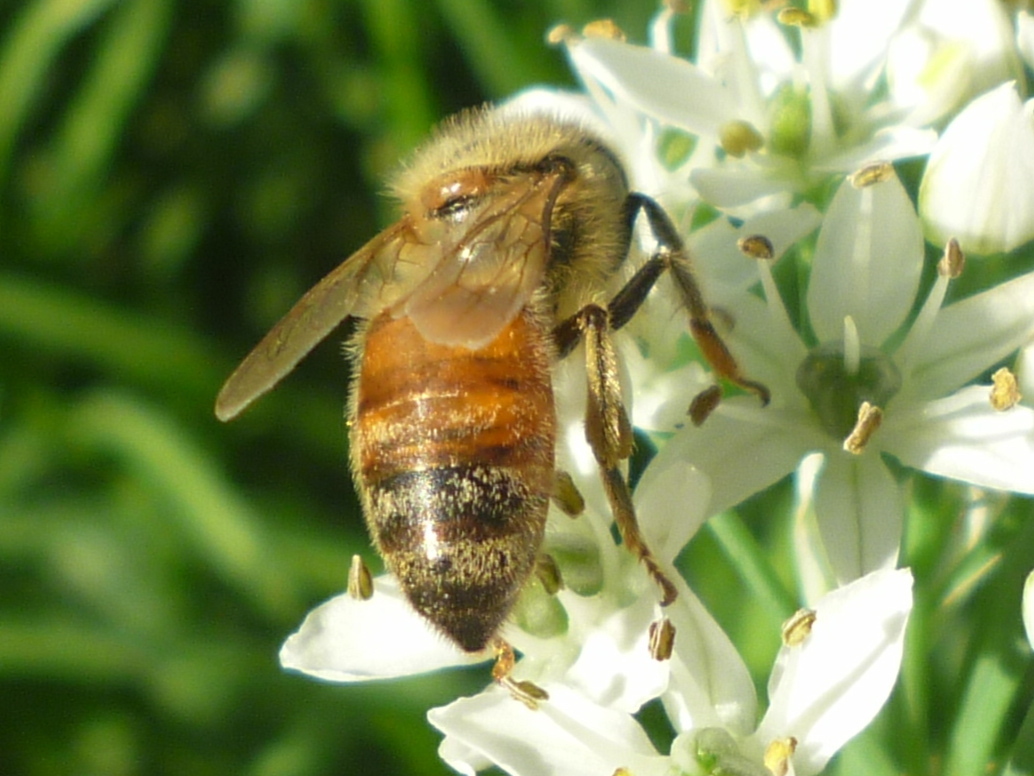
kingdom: Animalia
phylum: Arthropoda
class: Insecta
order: Hymenoptera
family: Apidae
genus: Apis
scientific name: Apis mellifera
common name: Honey bee
